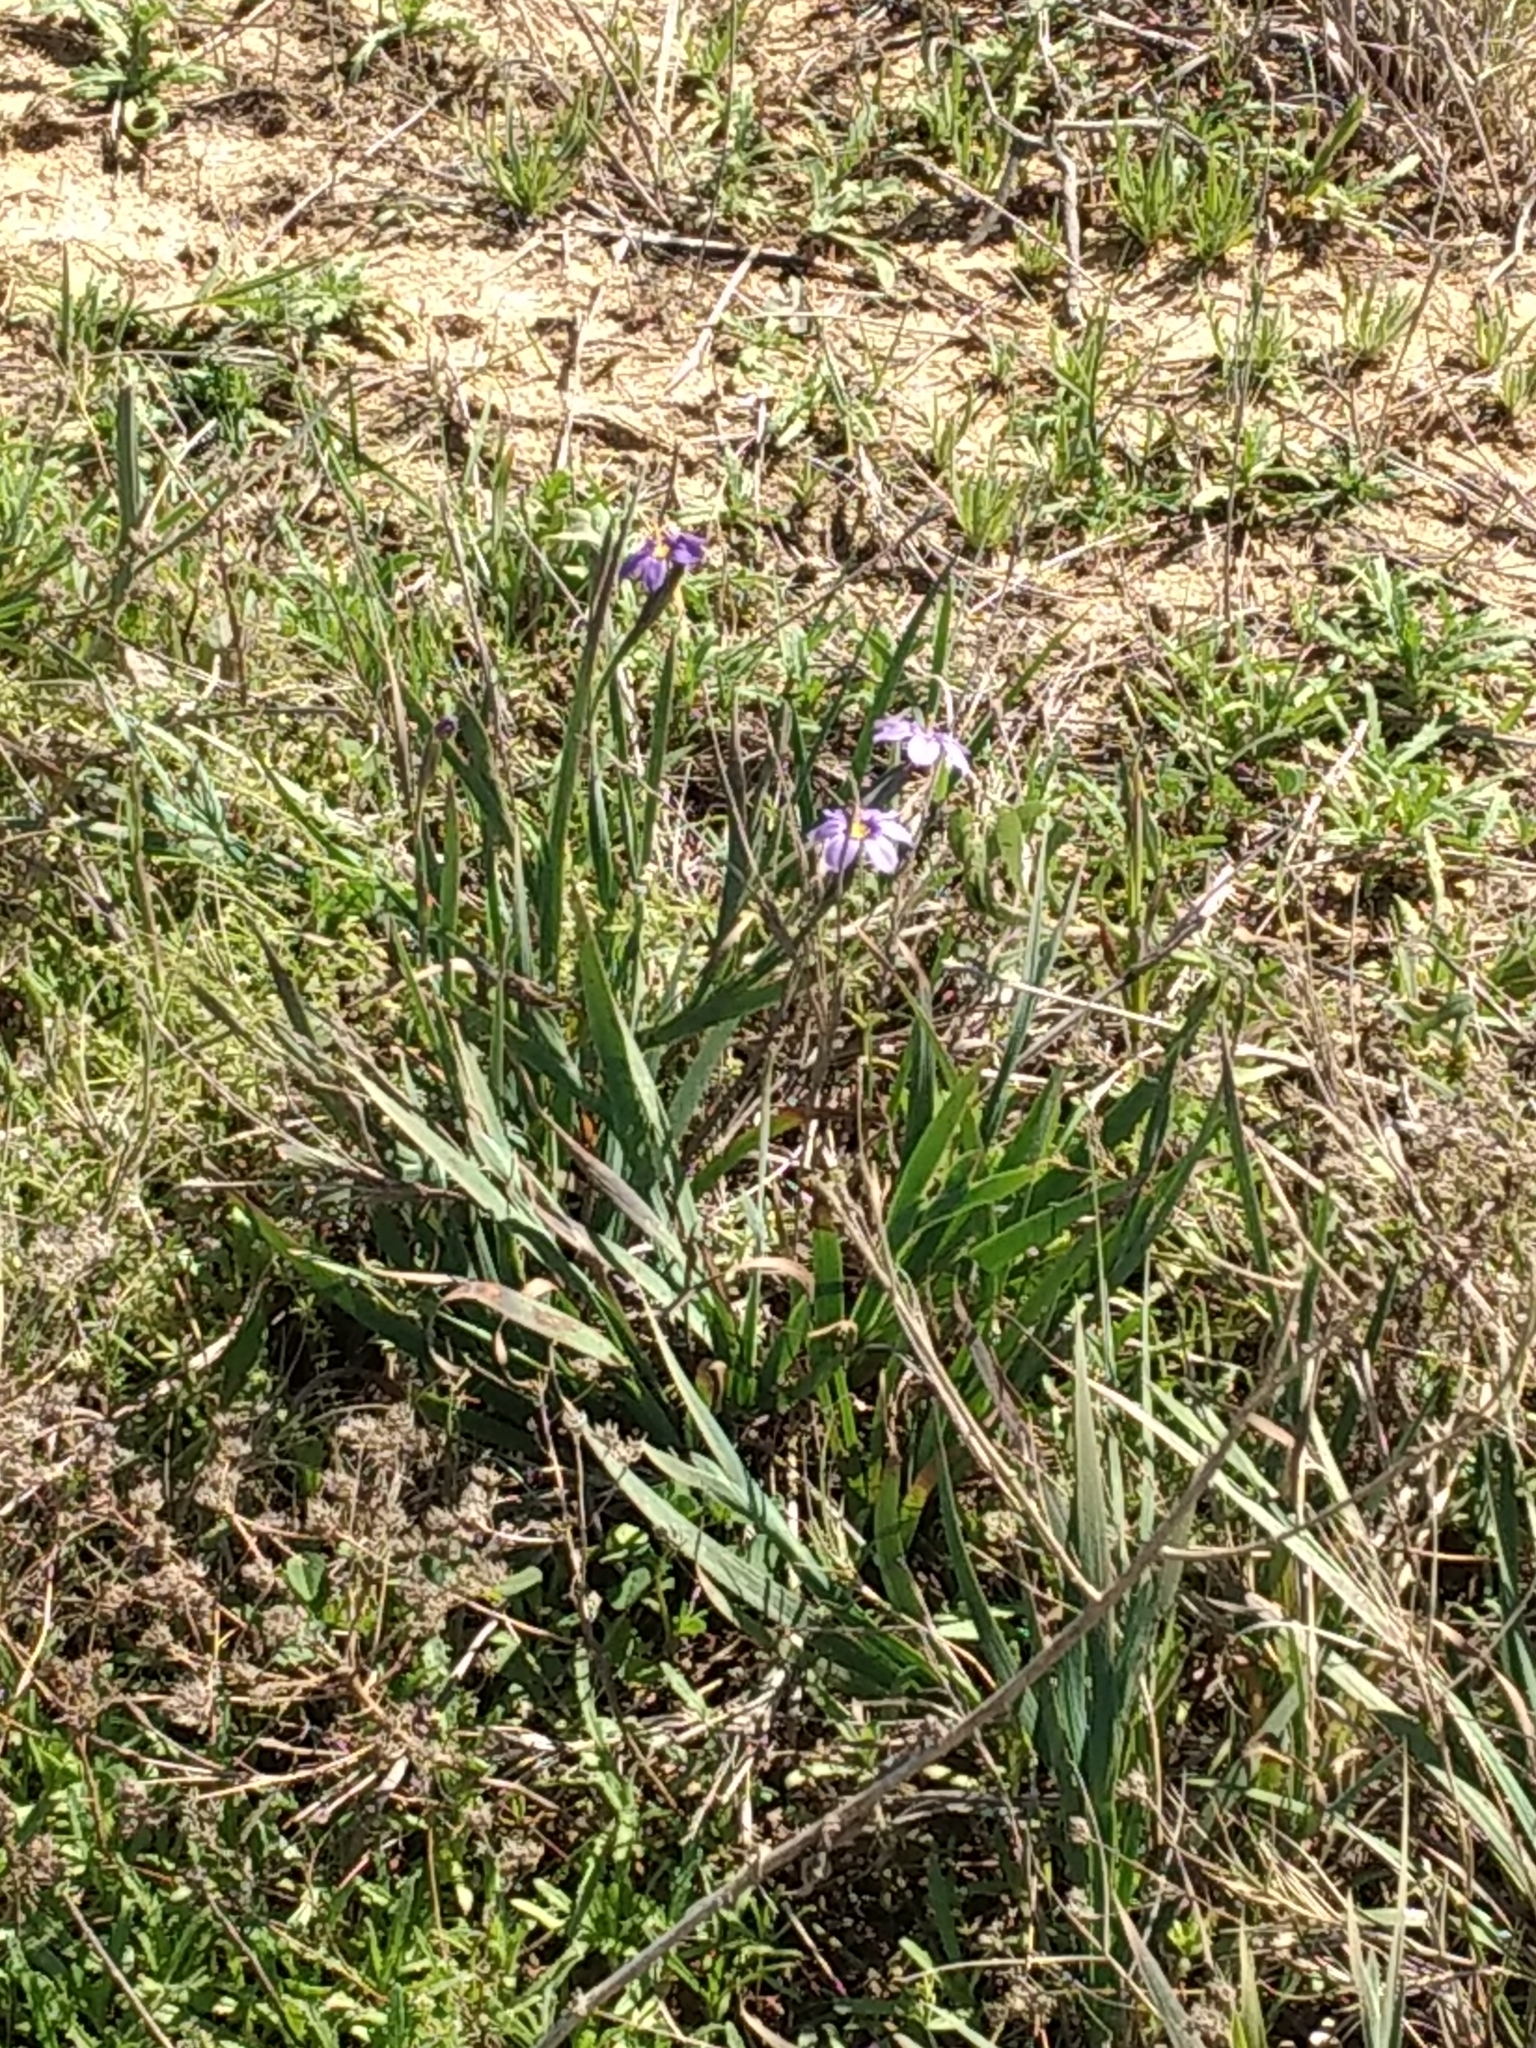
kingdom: Plantae
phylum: Tracheophyta
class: Liliopsida
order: Asparagales
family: Iridaceae
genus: Sisyrinchium
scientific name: Sisyrinchium bellum
